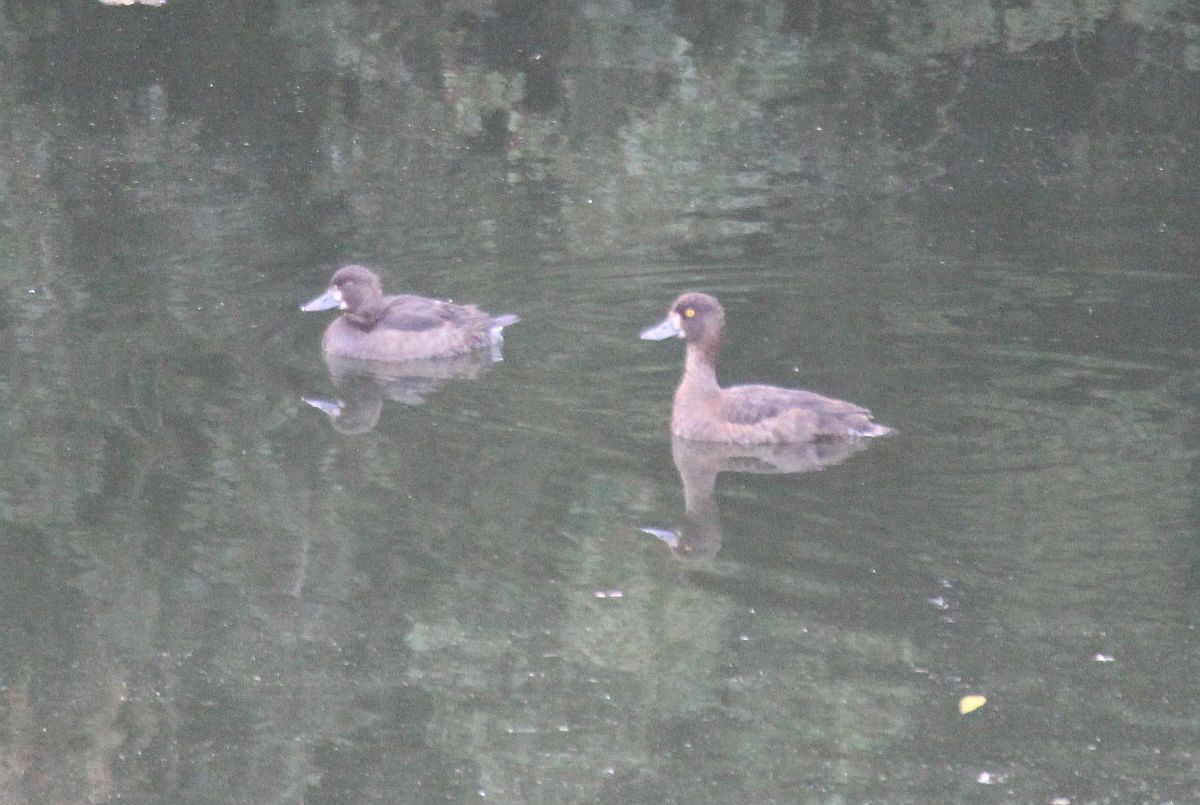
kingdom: Animalia
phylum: Chordata
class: Aves
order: Anseriformes
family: Anatidae
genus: Aythya
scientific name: Aythya fuligula
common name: Tufted duck
